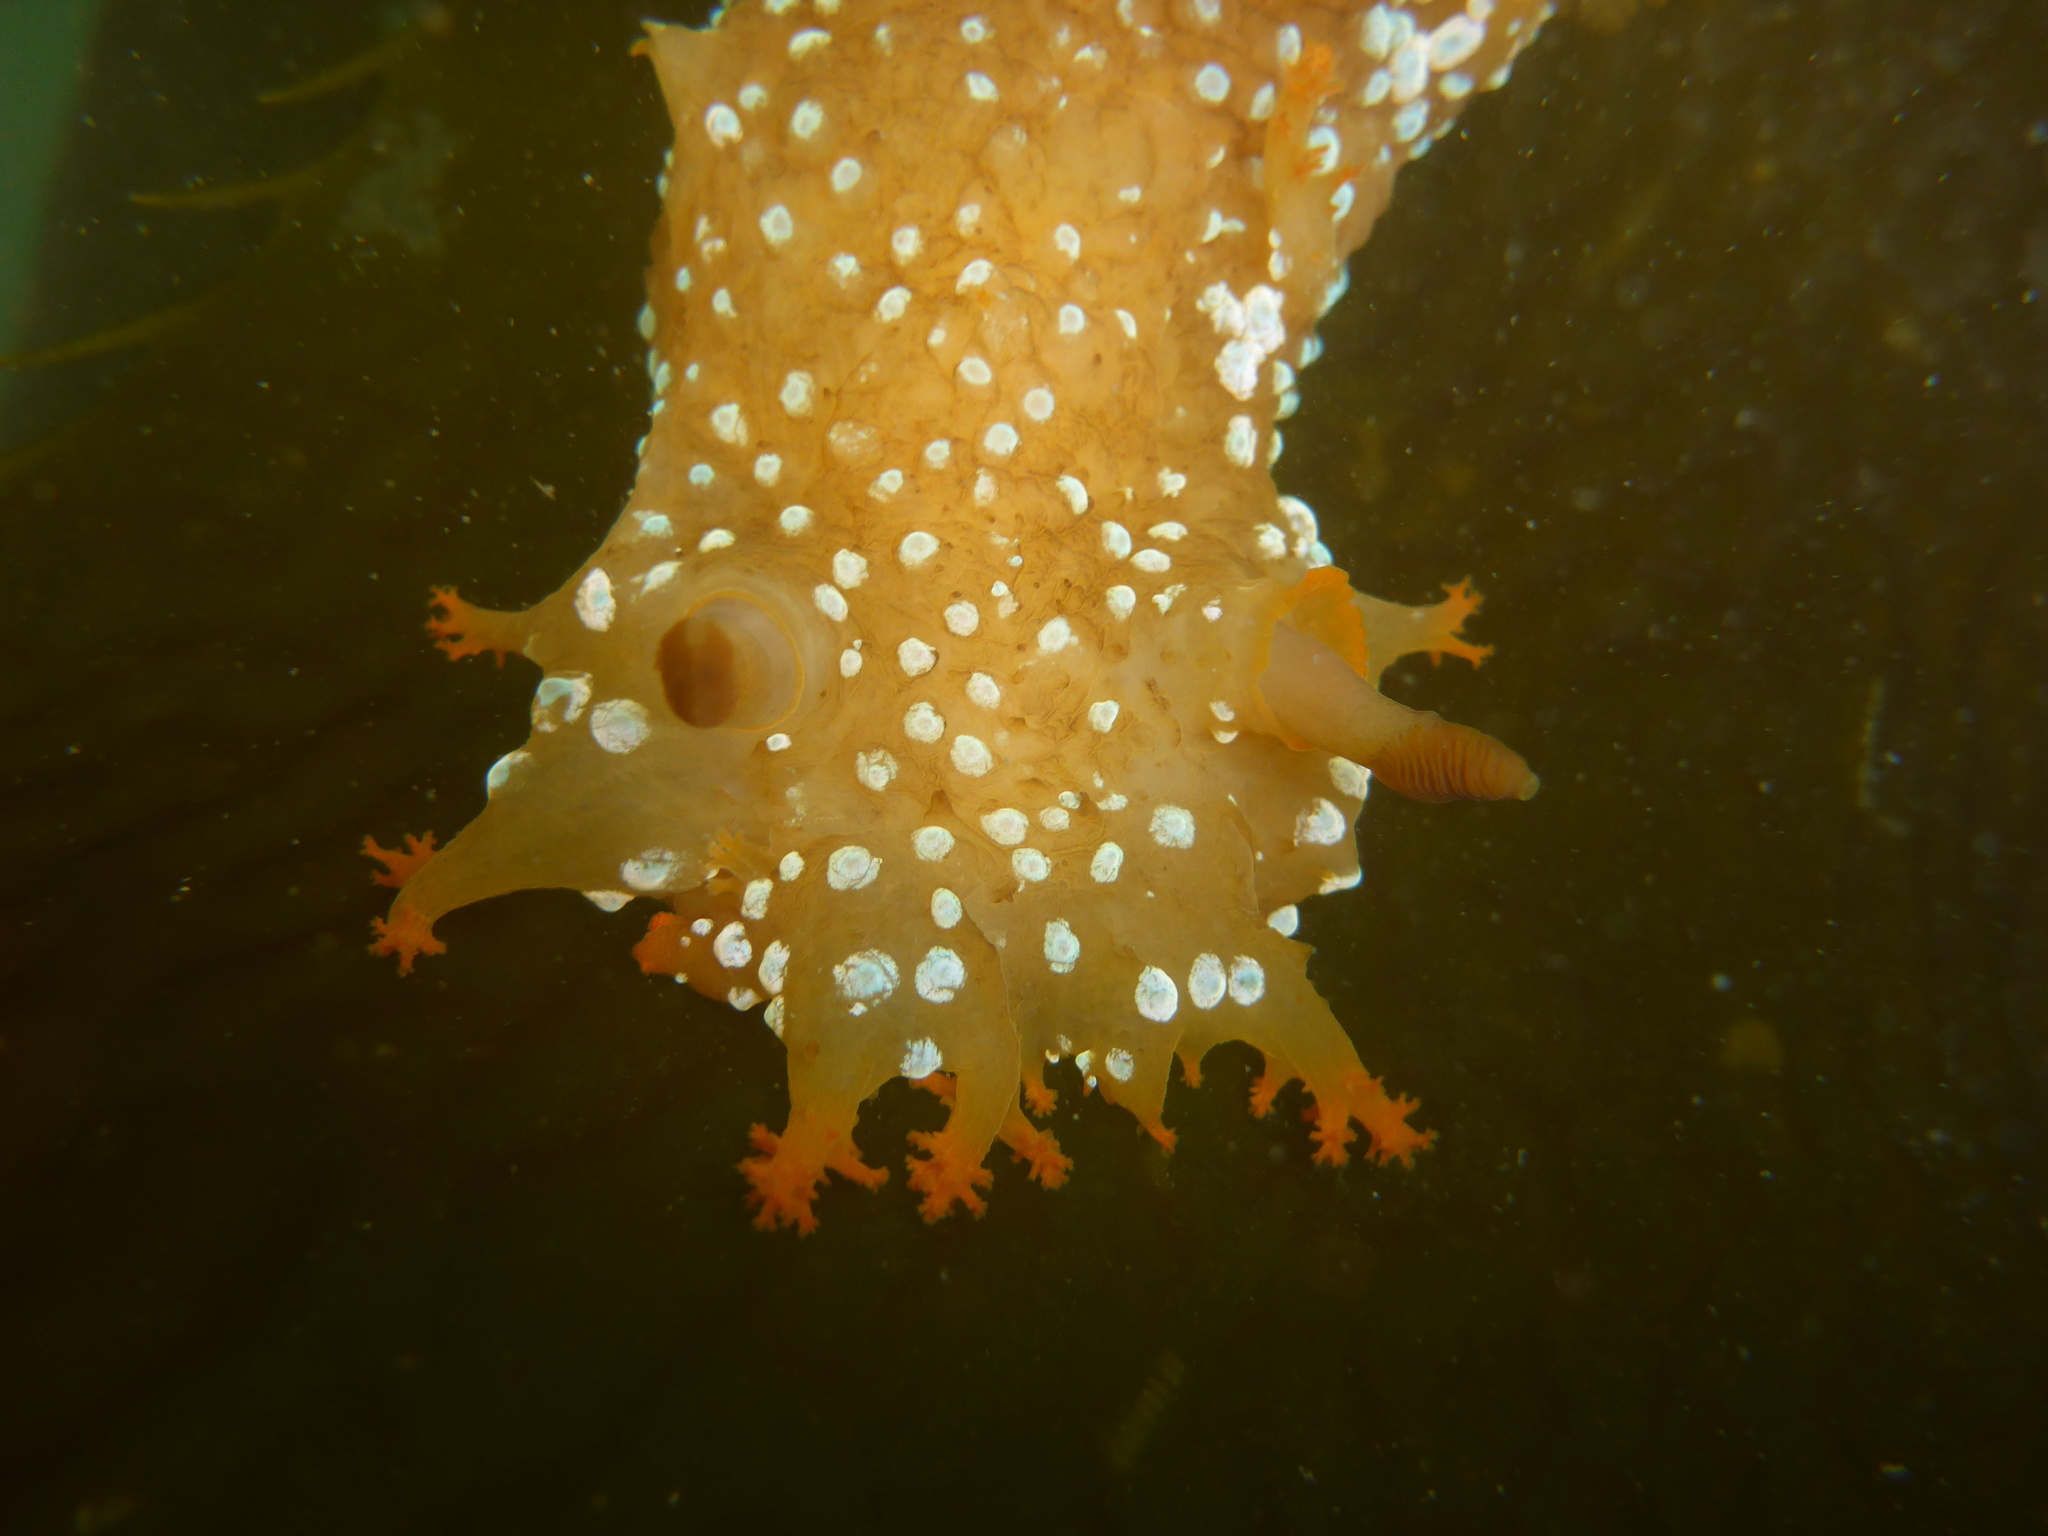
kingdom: Animalia
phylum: Mollusca
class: Gastropoda
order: Nudibranchia
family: Polyceridae
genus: Triopha
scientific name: Triopha maculata
